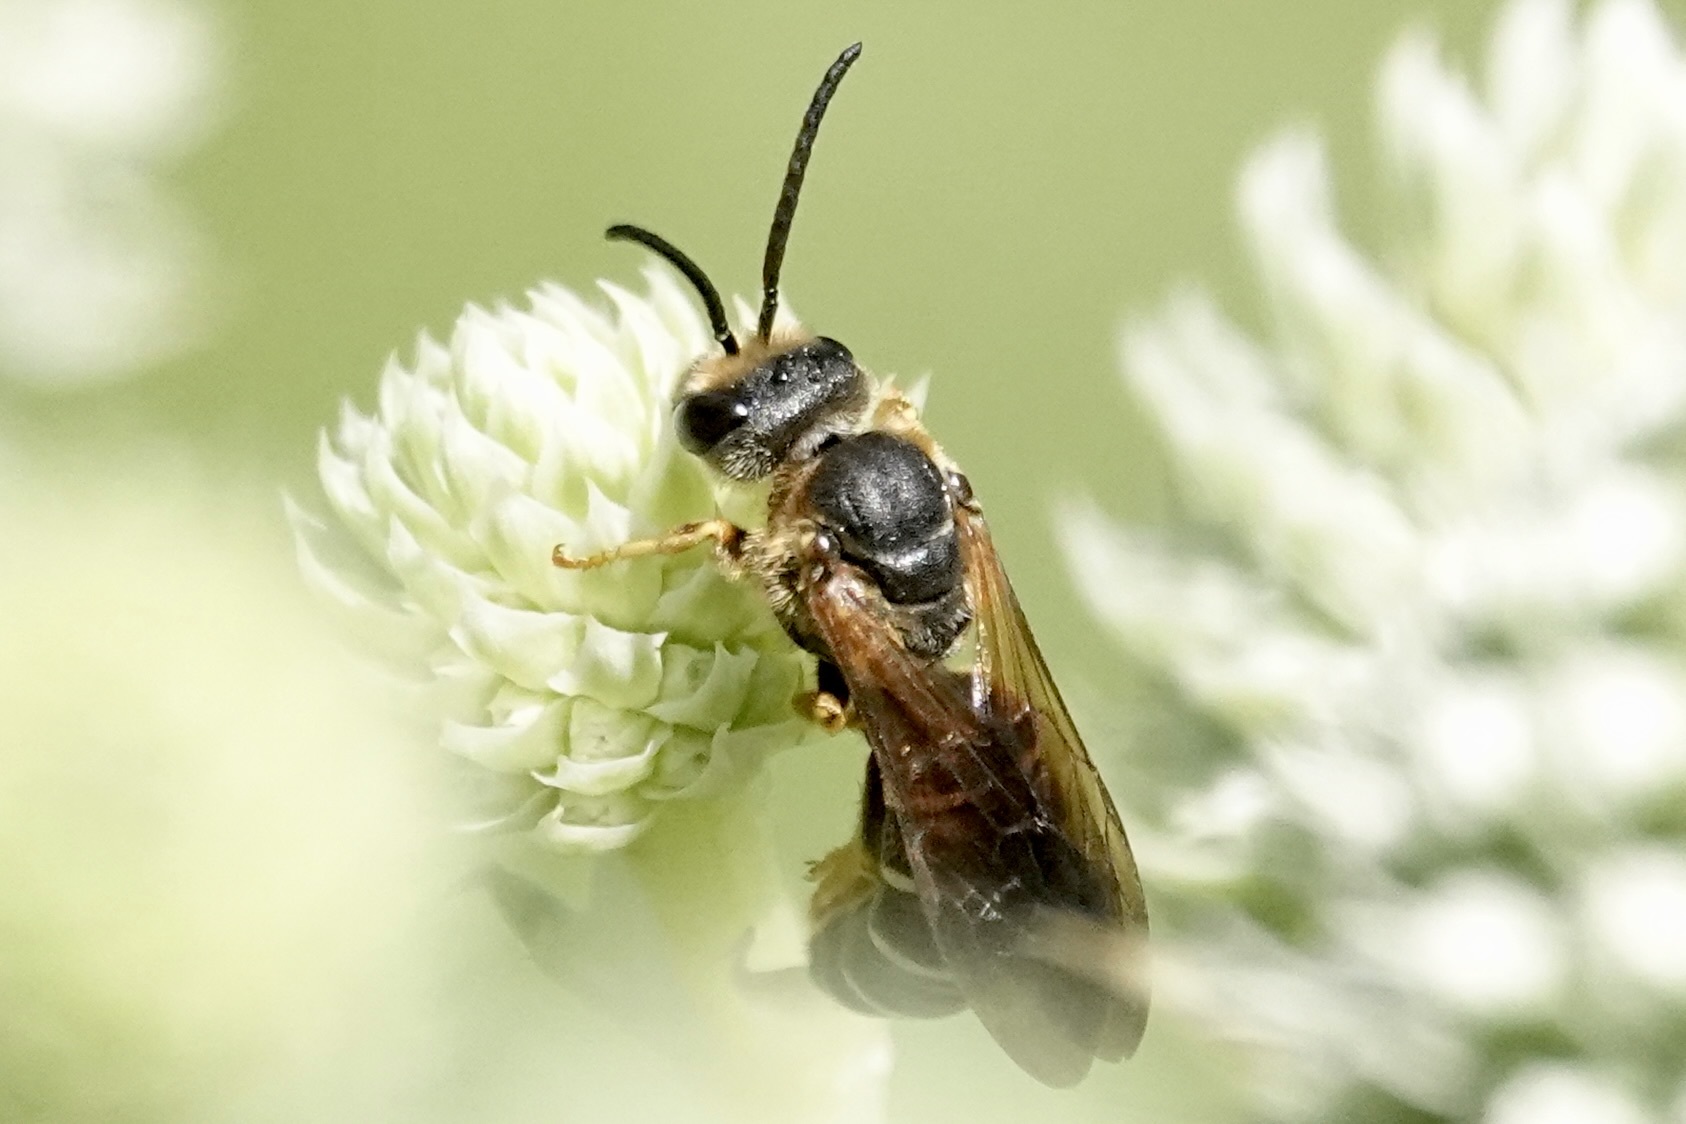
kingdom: Animalia
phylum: Arthropoda
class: Insecta
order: Hymenoptera
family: Halictidae
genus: Halictus
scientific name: Halictus parallelus
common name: Parallel-striped sweat bee
